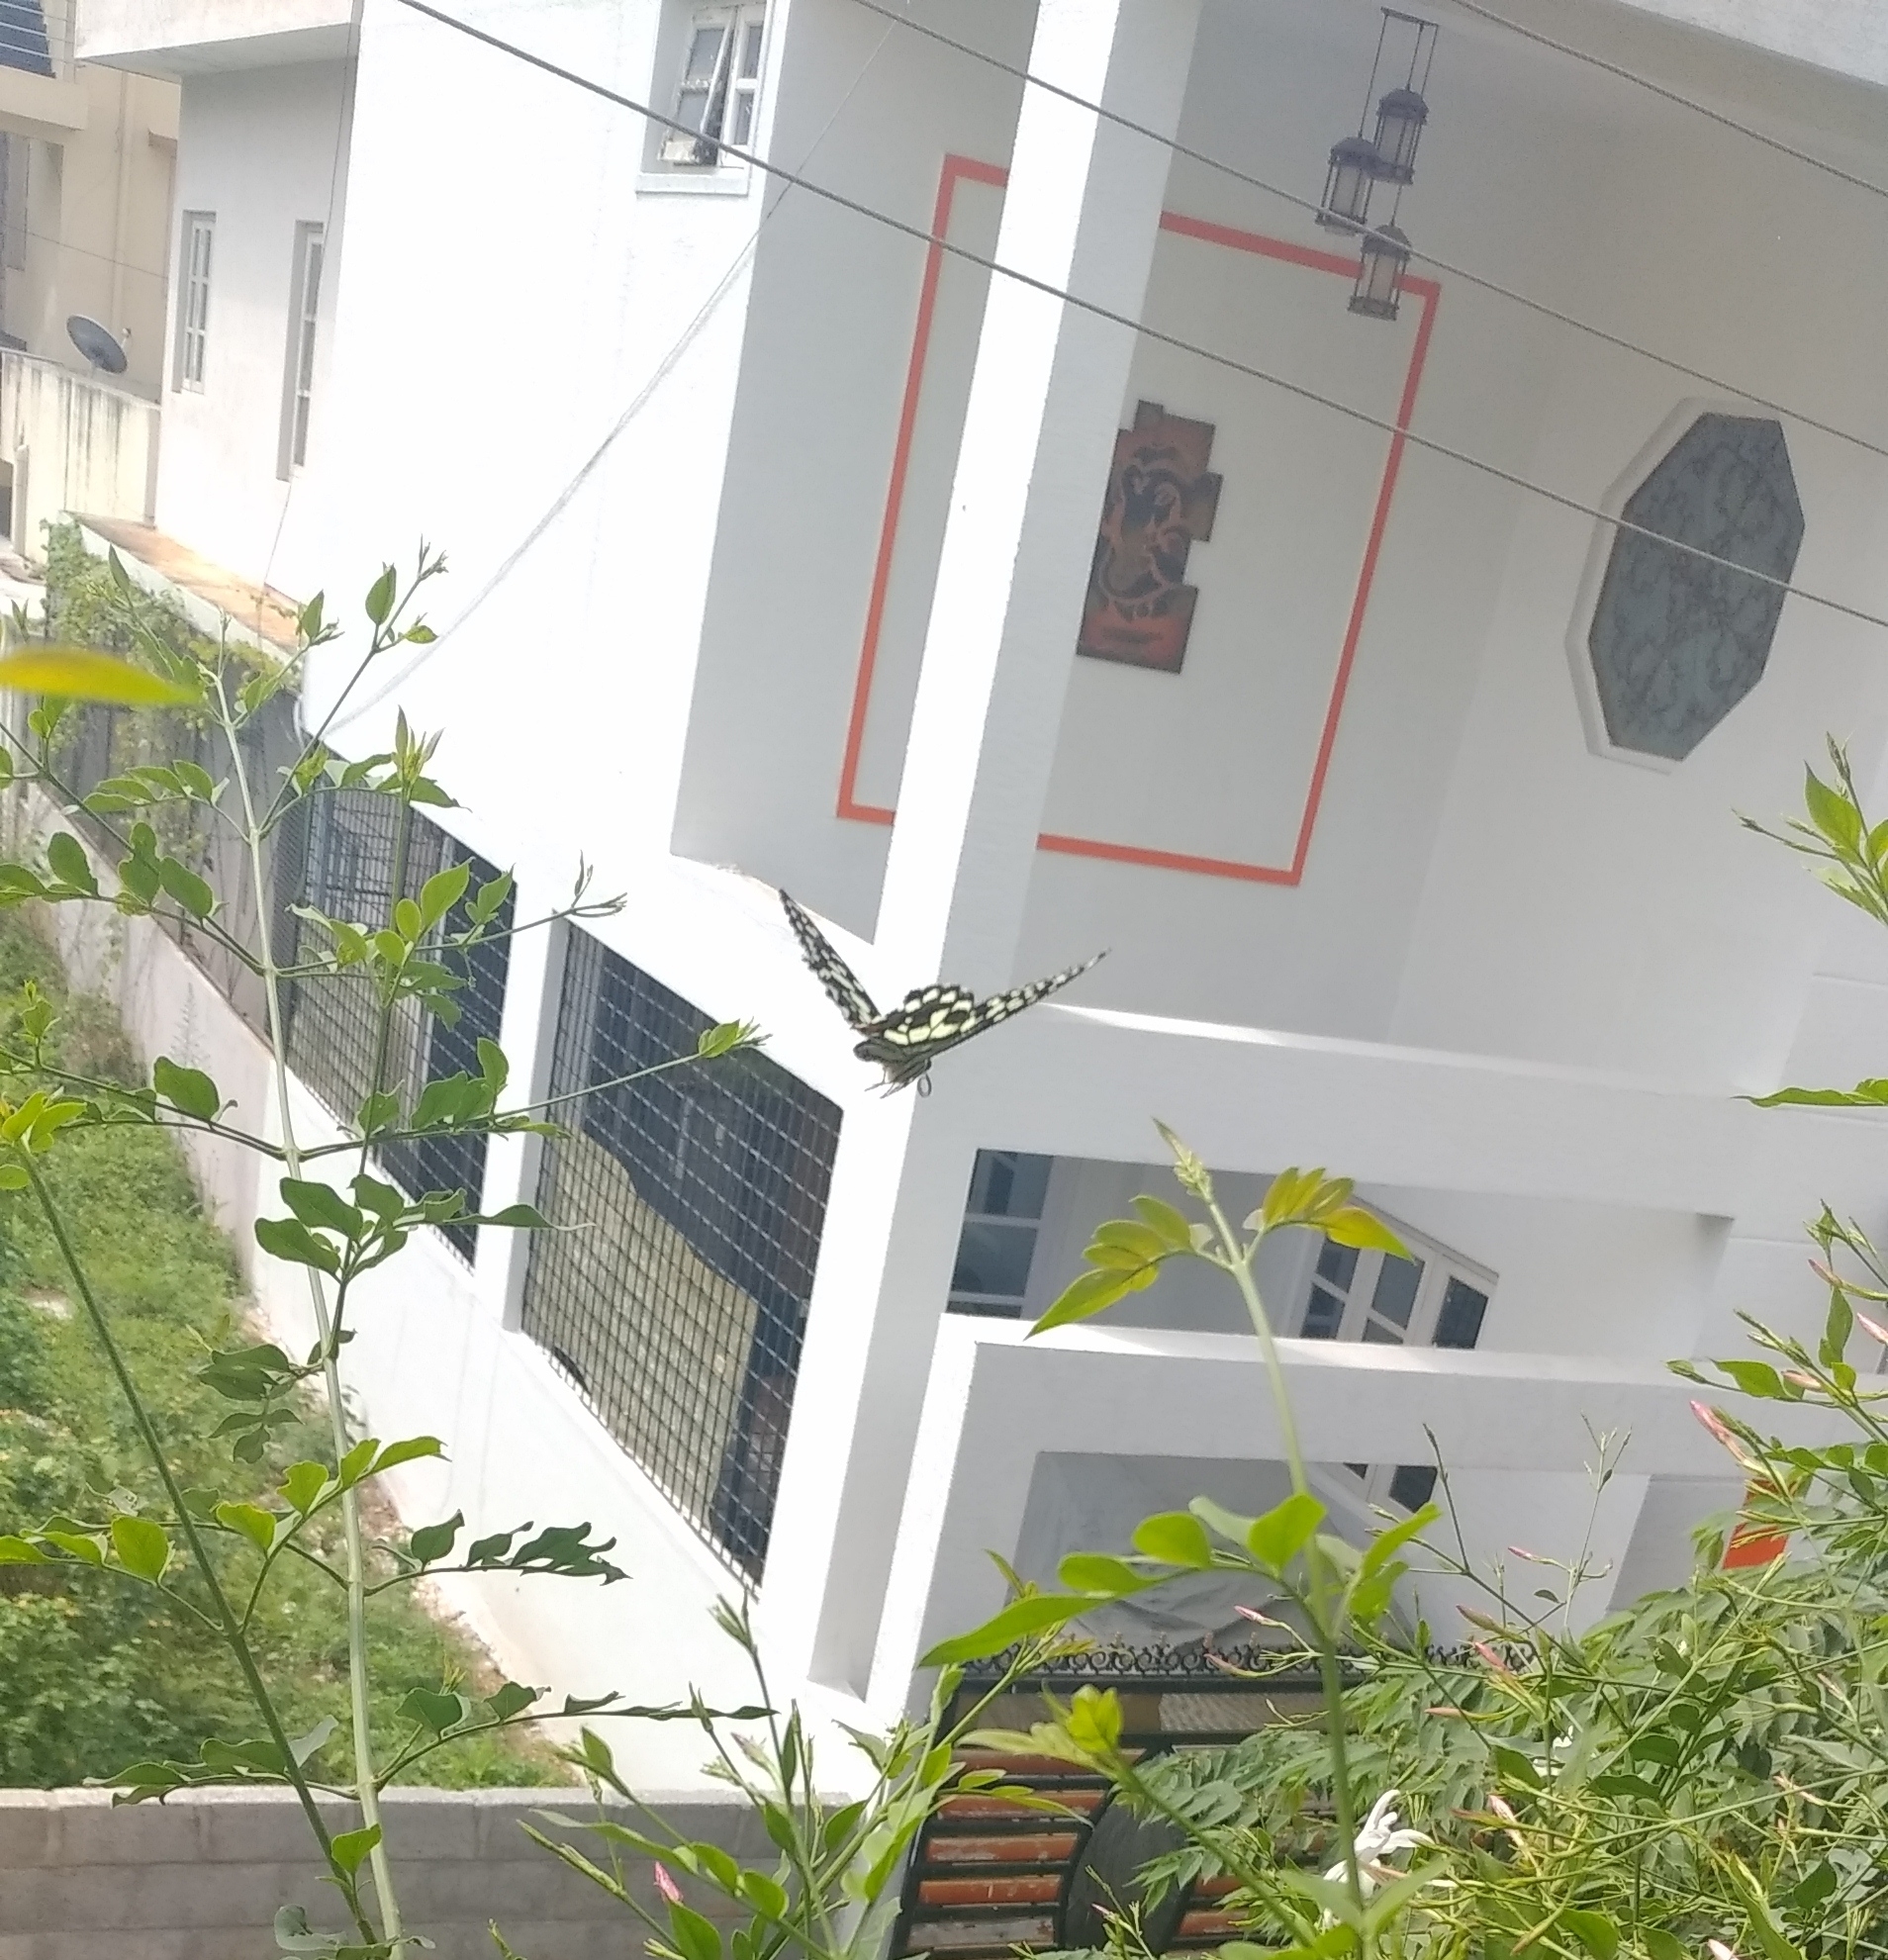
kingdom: Animalia
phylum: Arthropoda
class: Insecta
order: Lepidoptera
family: Papilionidae
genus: Papilio
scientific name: Papilio demoleus
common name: Lime butterfly
